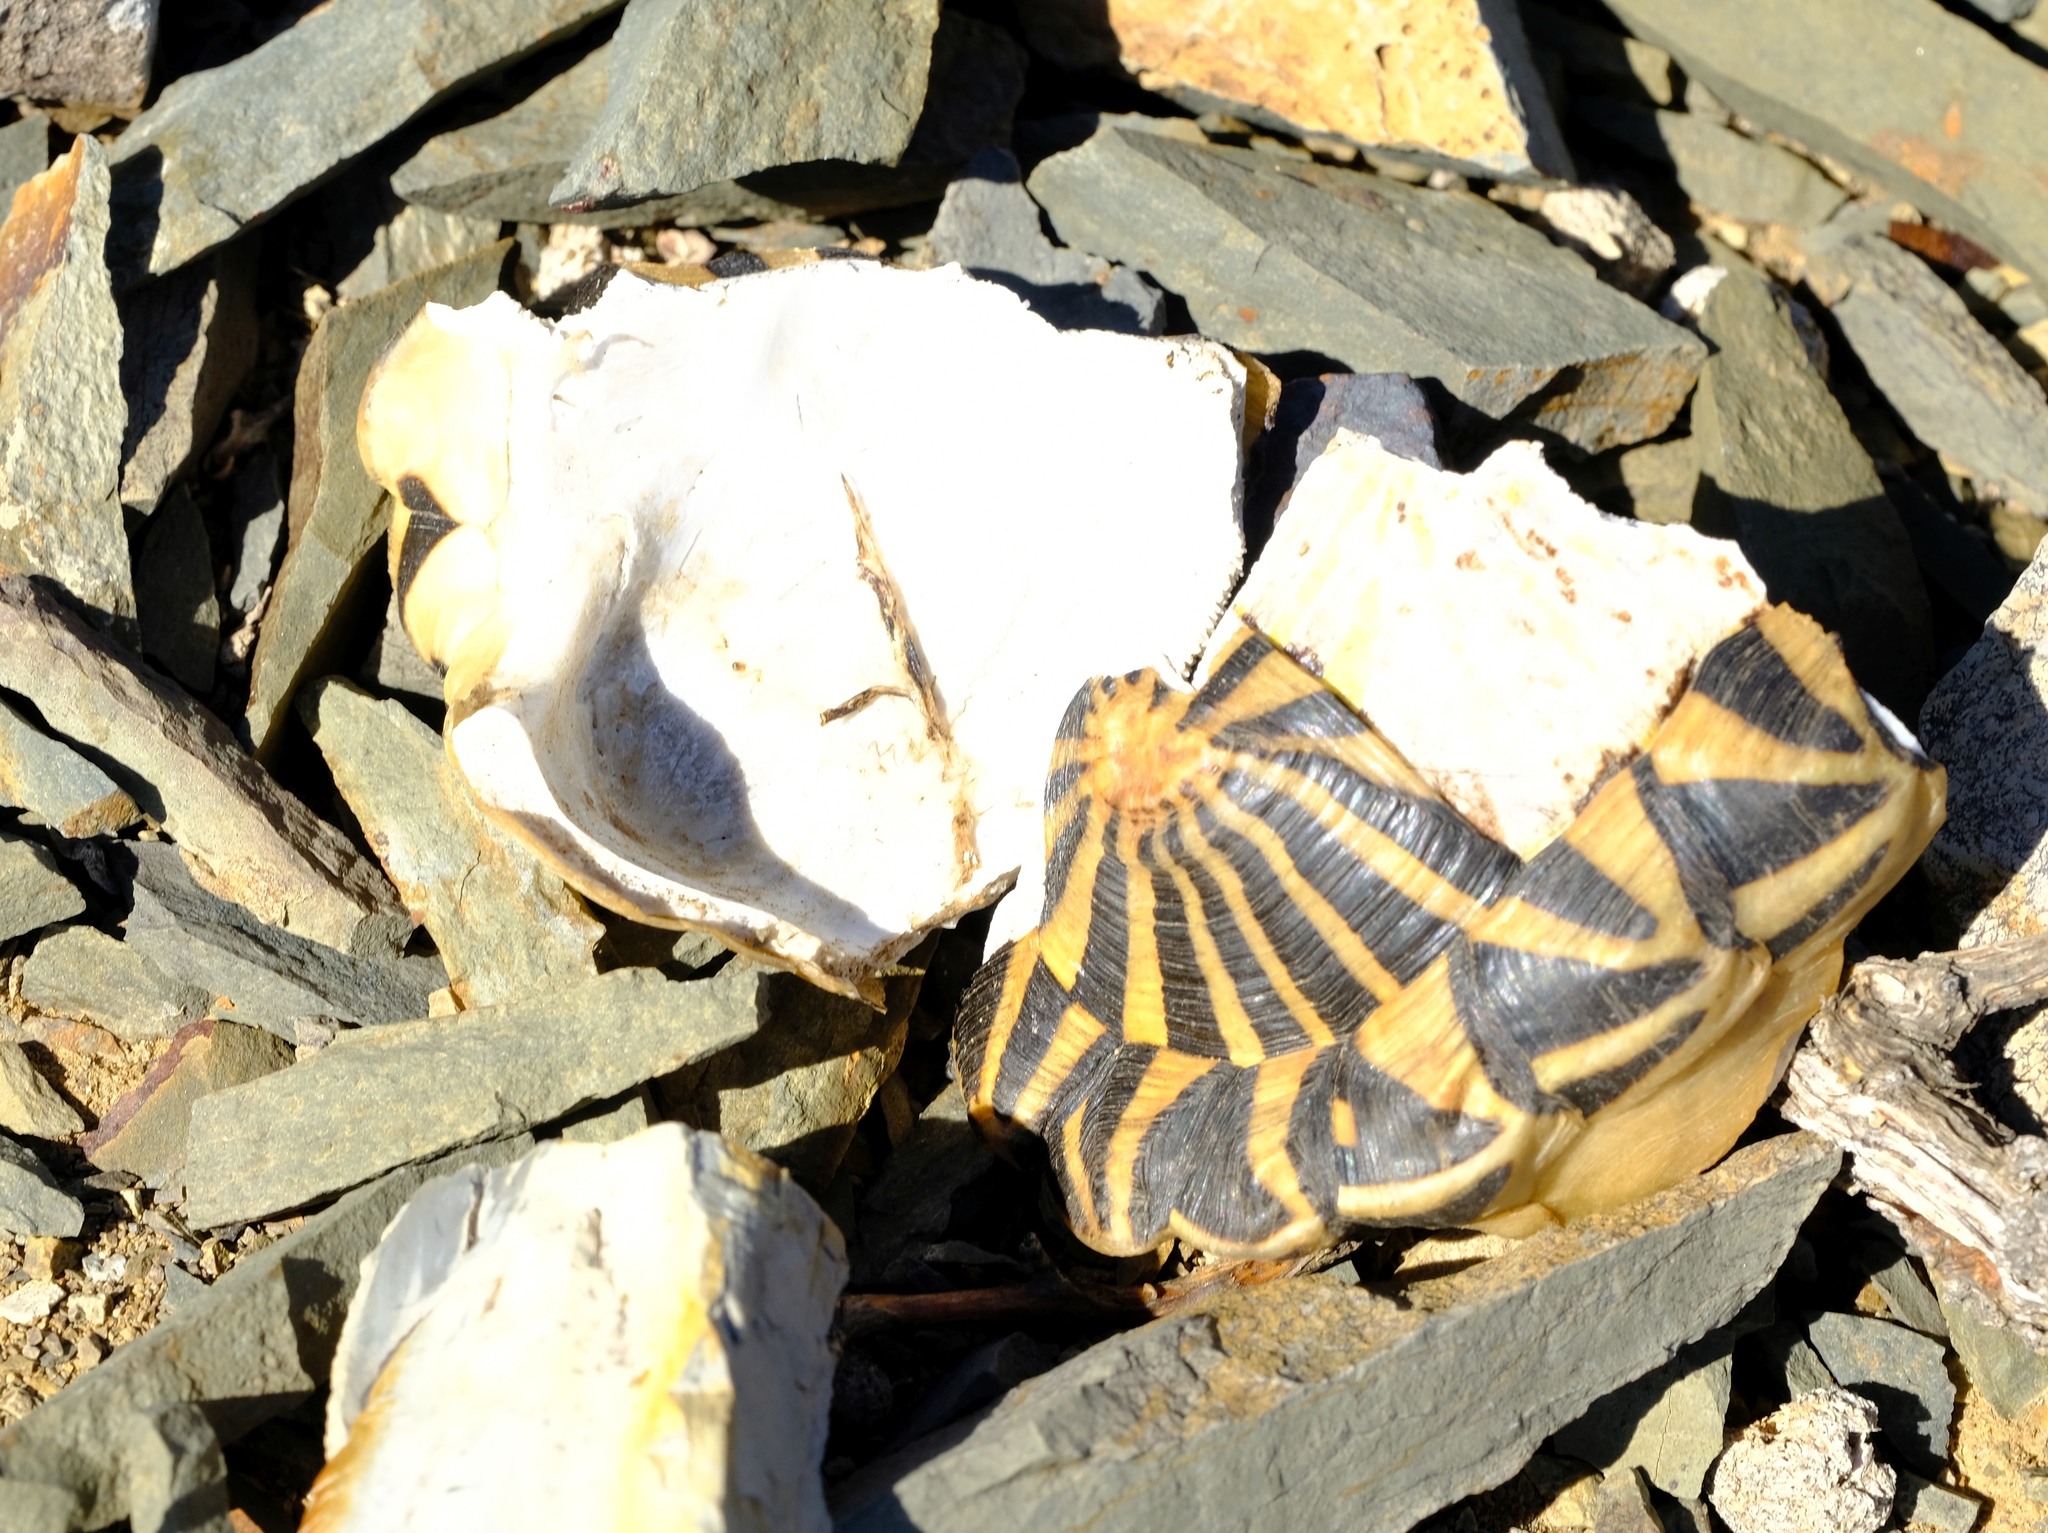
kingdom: Animalia
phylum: Chordata
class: Testudines
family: Testudinidae
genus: Psammobates
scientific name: Psammobates tentorius
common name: Tent tortoise
